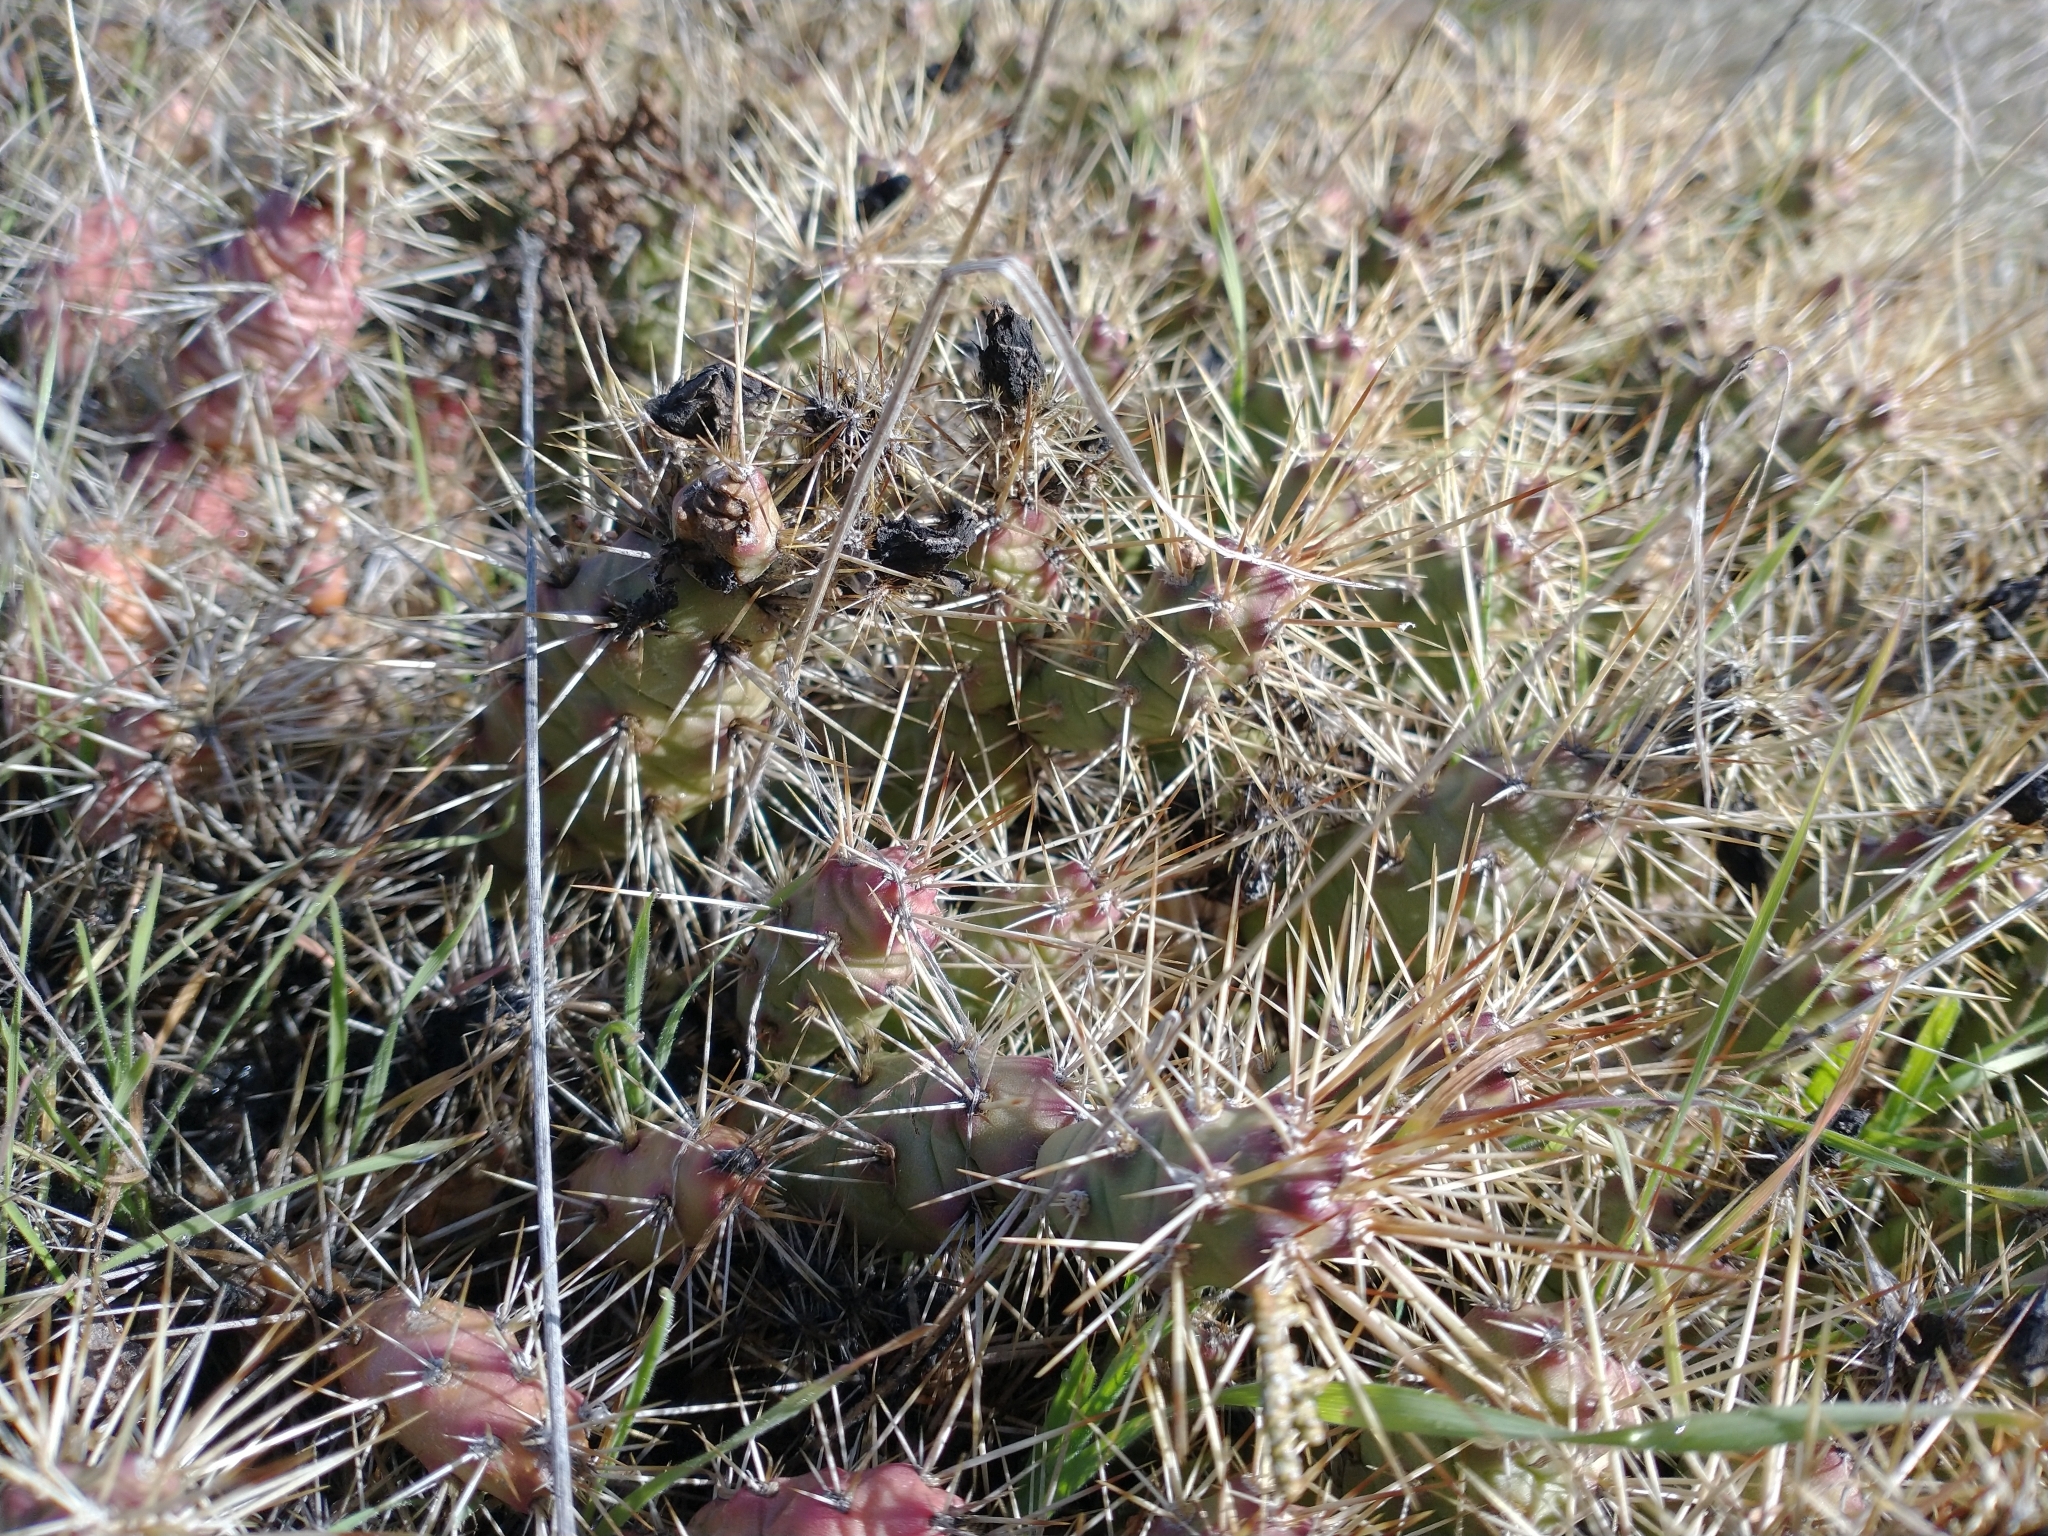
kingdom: Plantae
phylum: Tracheophyta
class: Magnoliopsida
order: Caryophyllales
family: Cactaceae
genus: Opuntia
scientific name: Opuntia fragilis
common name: Brittle cactus
